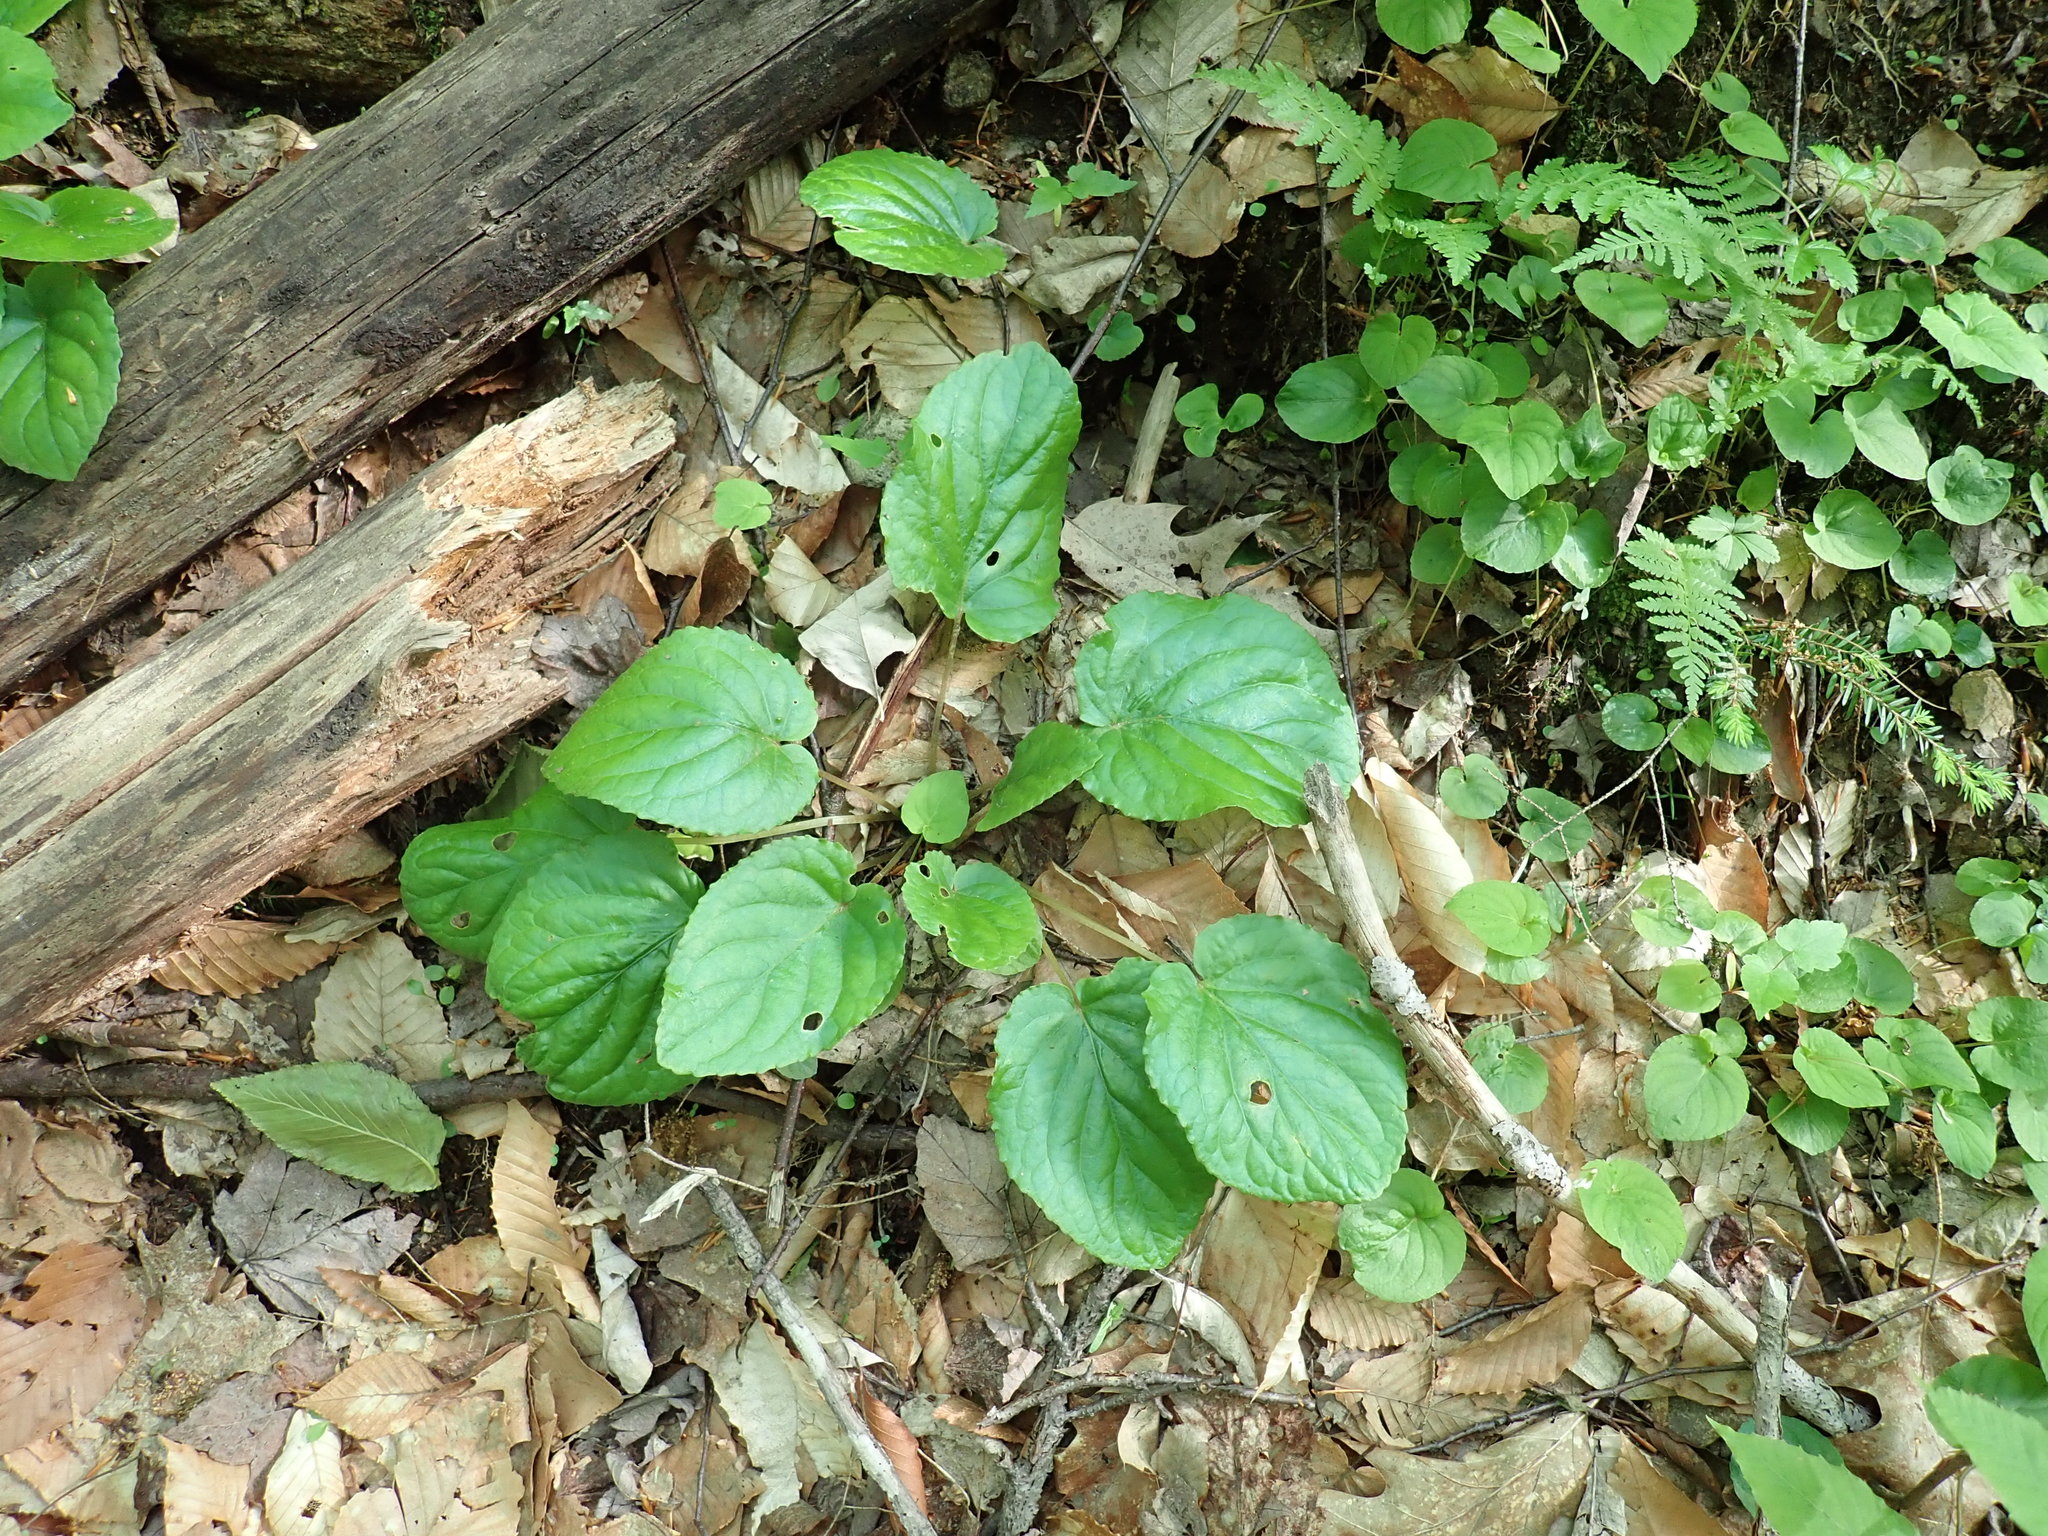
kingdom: Plantae
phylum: Tracheophyta
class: Magnoliopsida
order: Malpighiales
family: Violaceae
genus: Viola
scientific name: Viola rotundifolia
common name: Early yellow violet
